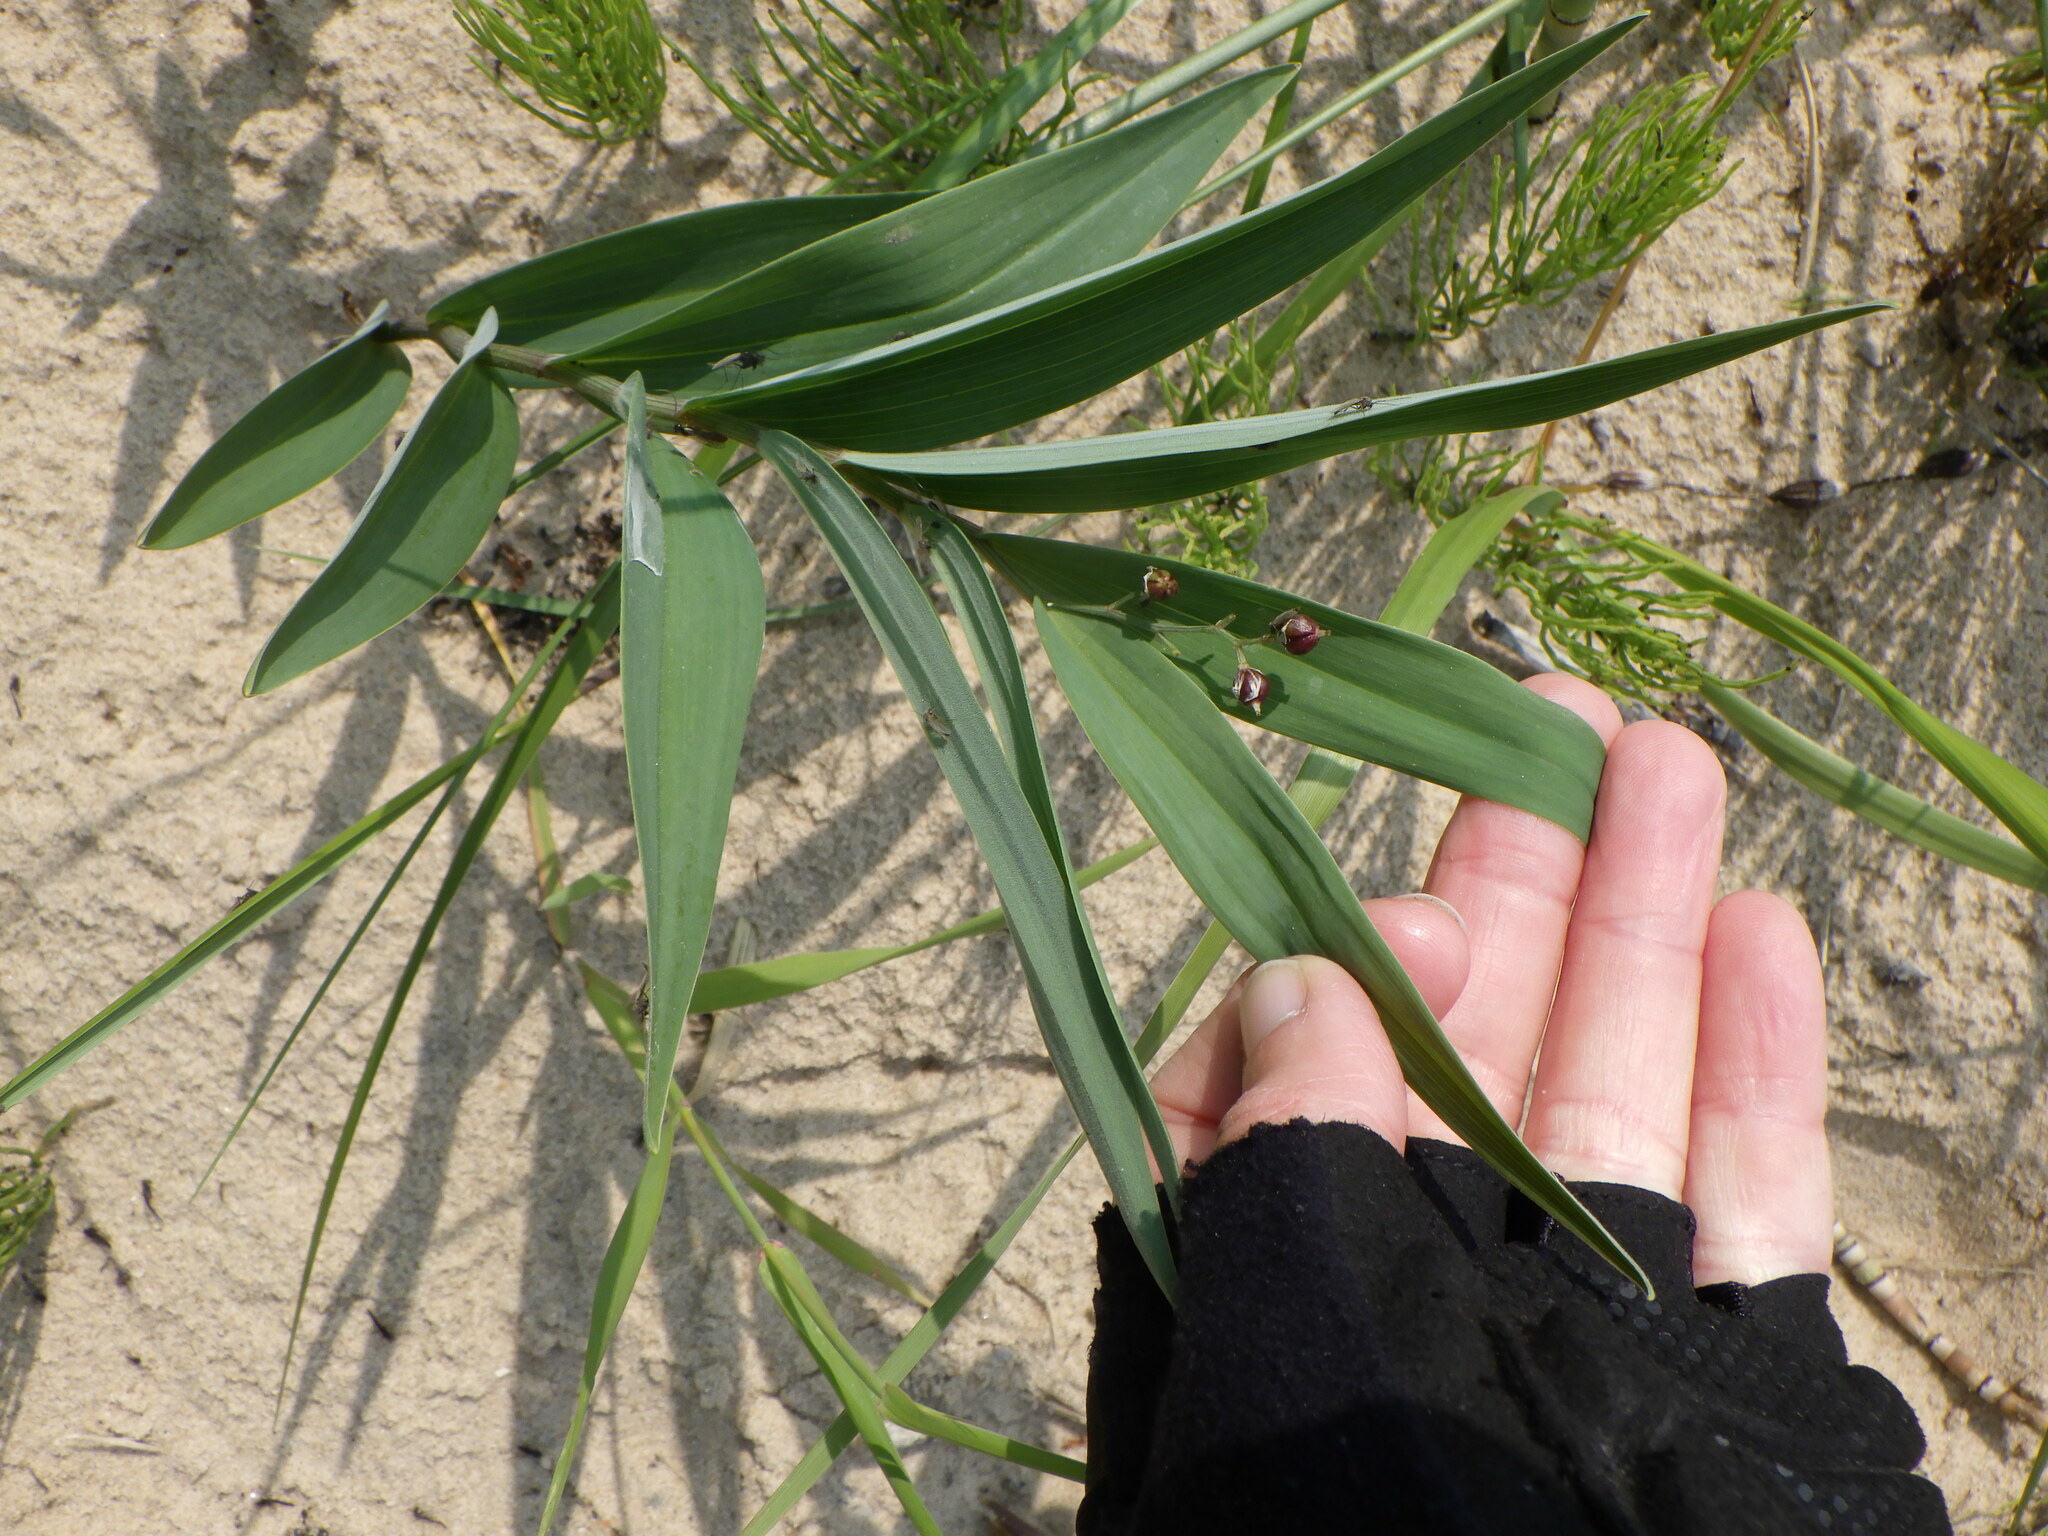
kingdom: Plantae
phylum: Tracheophyta
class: Liliopsida
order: Asparagales
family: Asparagaceae
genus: Maianthemum
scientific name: Maianthemum stellatum
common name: Little false solomon's seal
